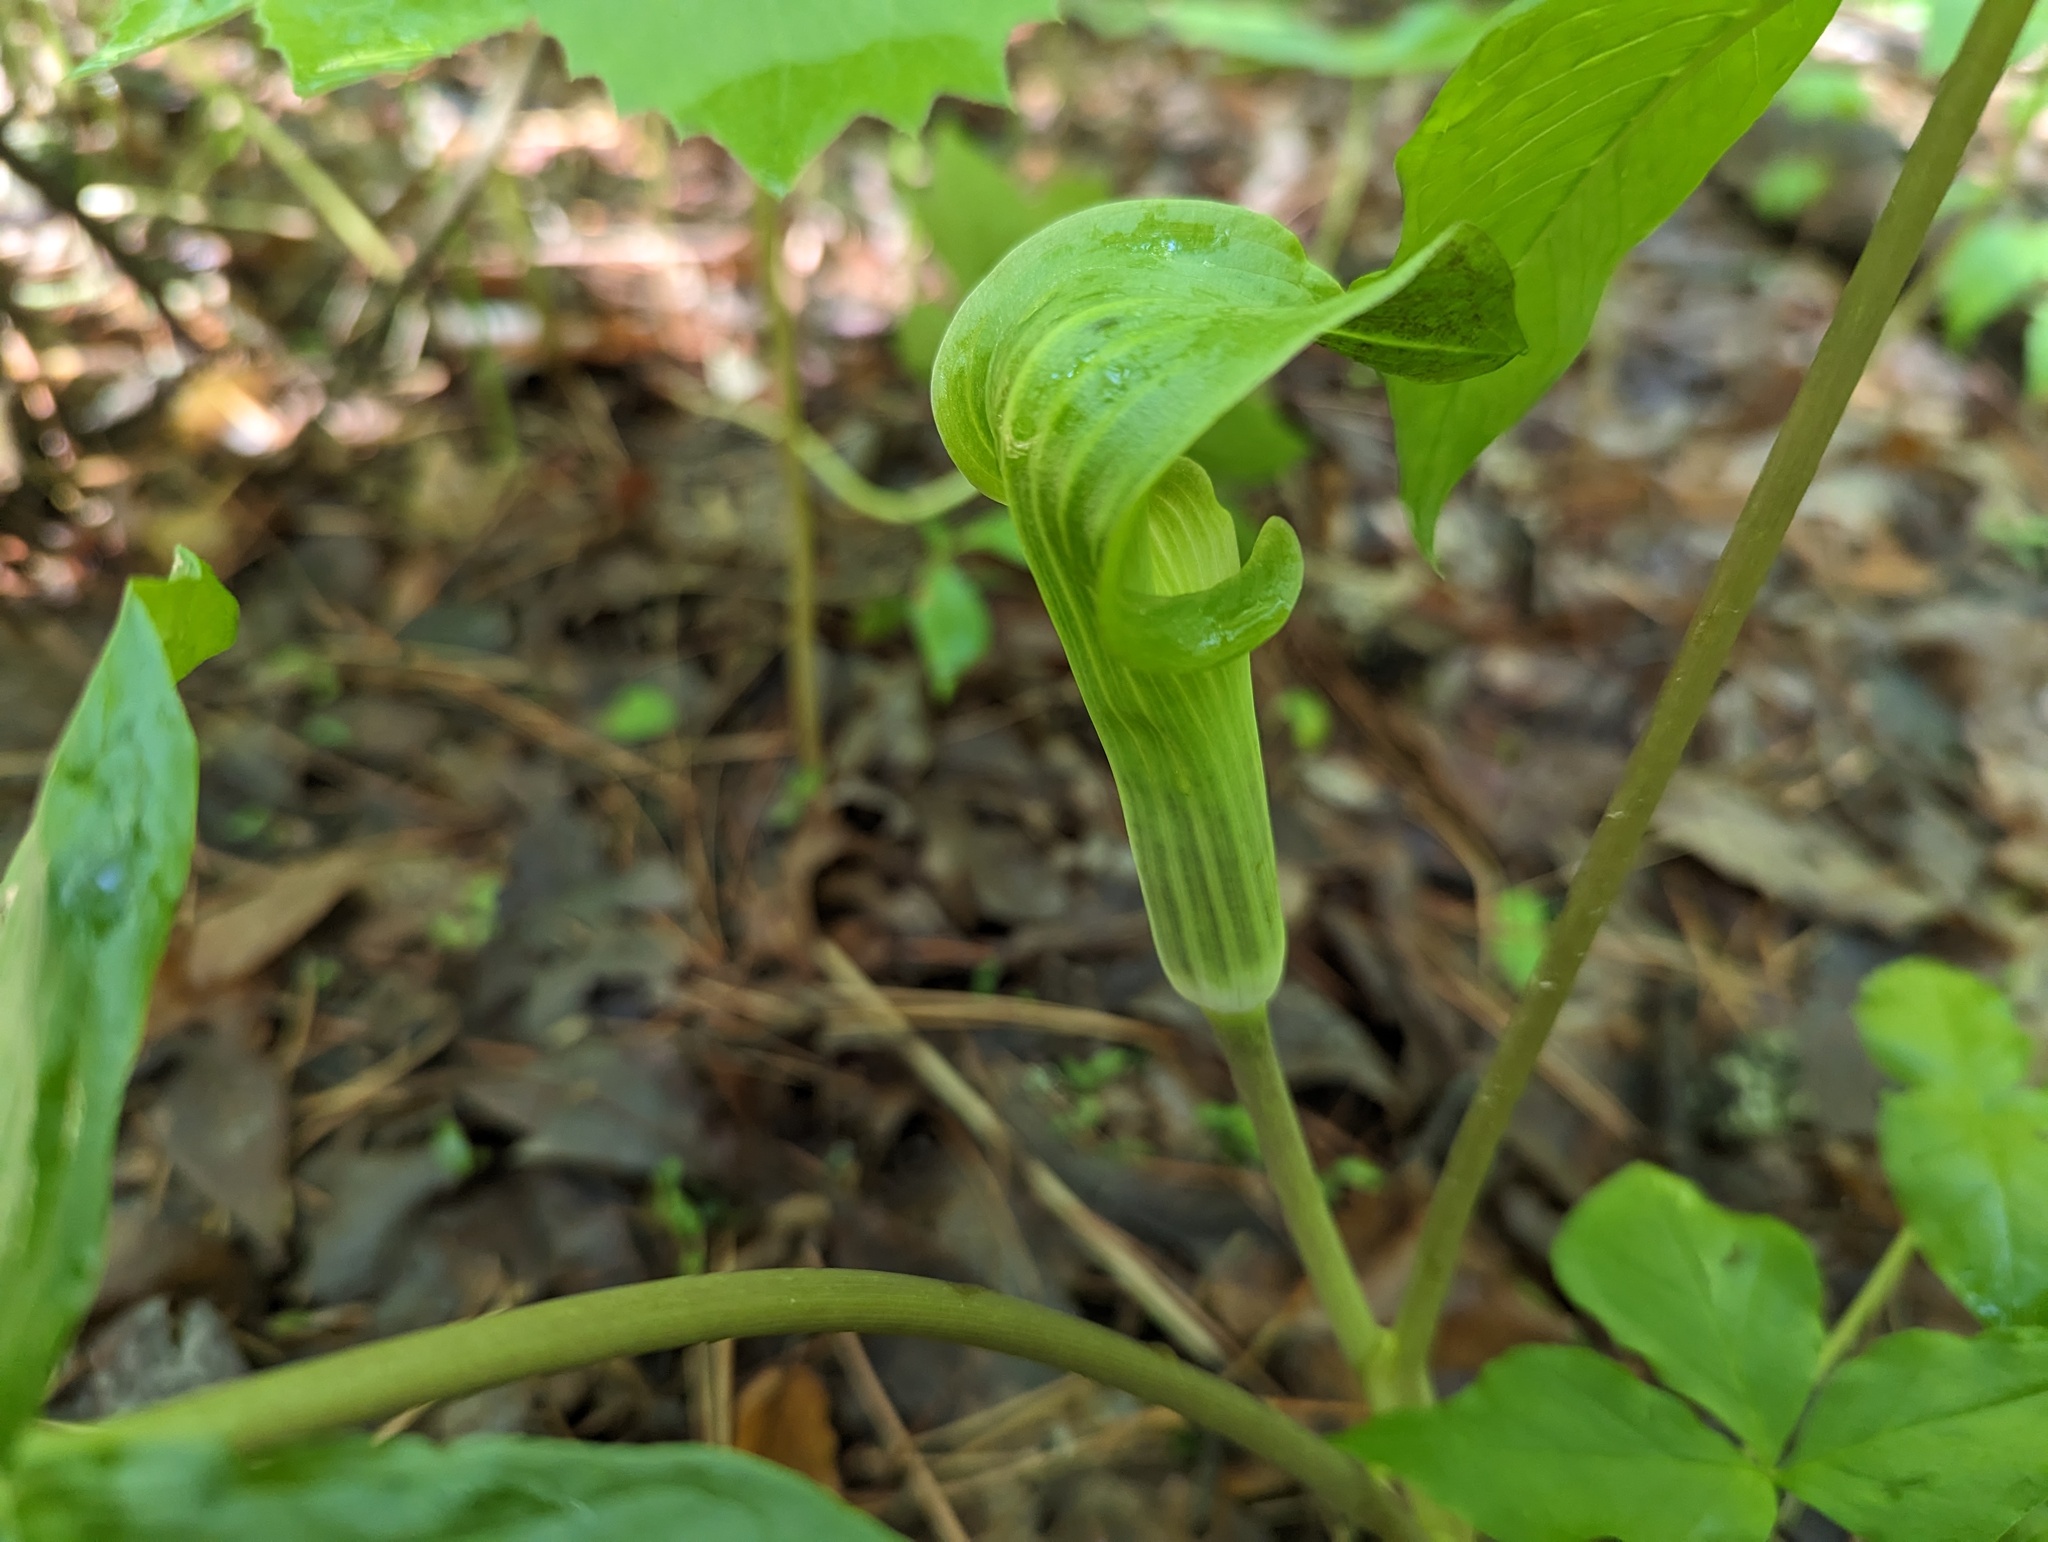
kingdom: Plantae
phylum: Tracheophyta
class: Liliopsida
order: Alismatales
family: Araceae
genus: Arisaema
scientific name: Arisaema triphyllum
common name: Jack-in-the-pulpit
